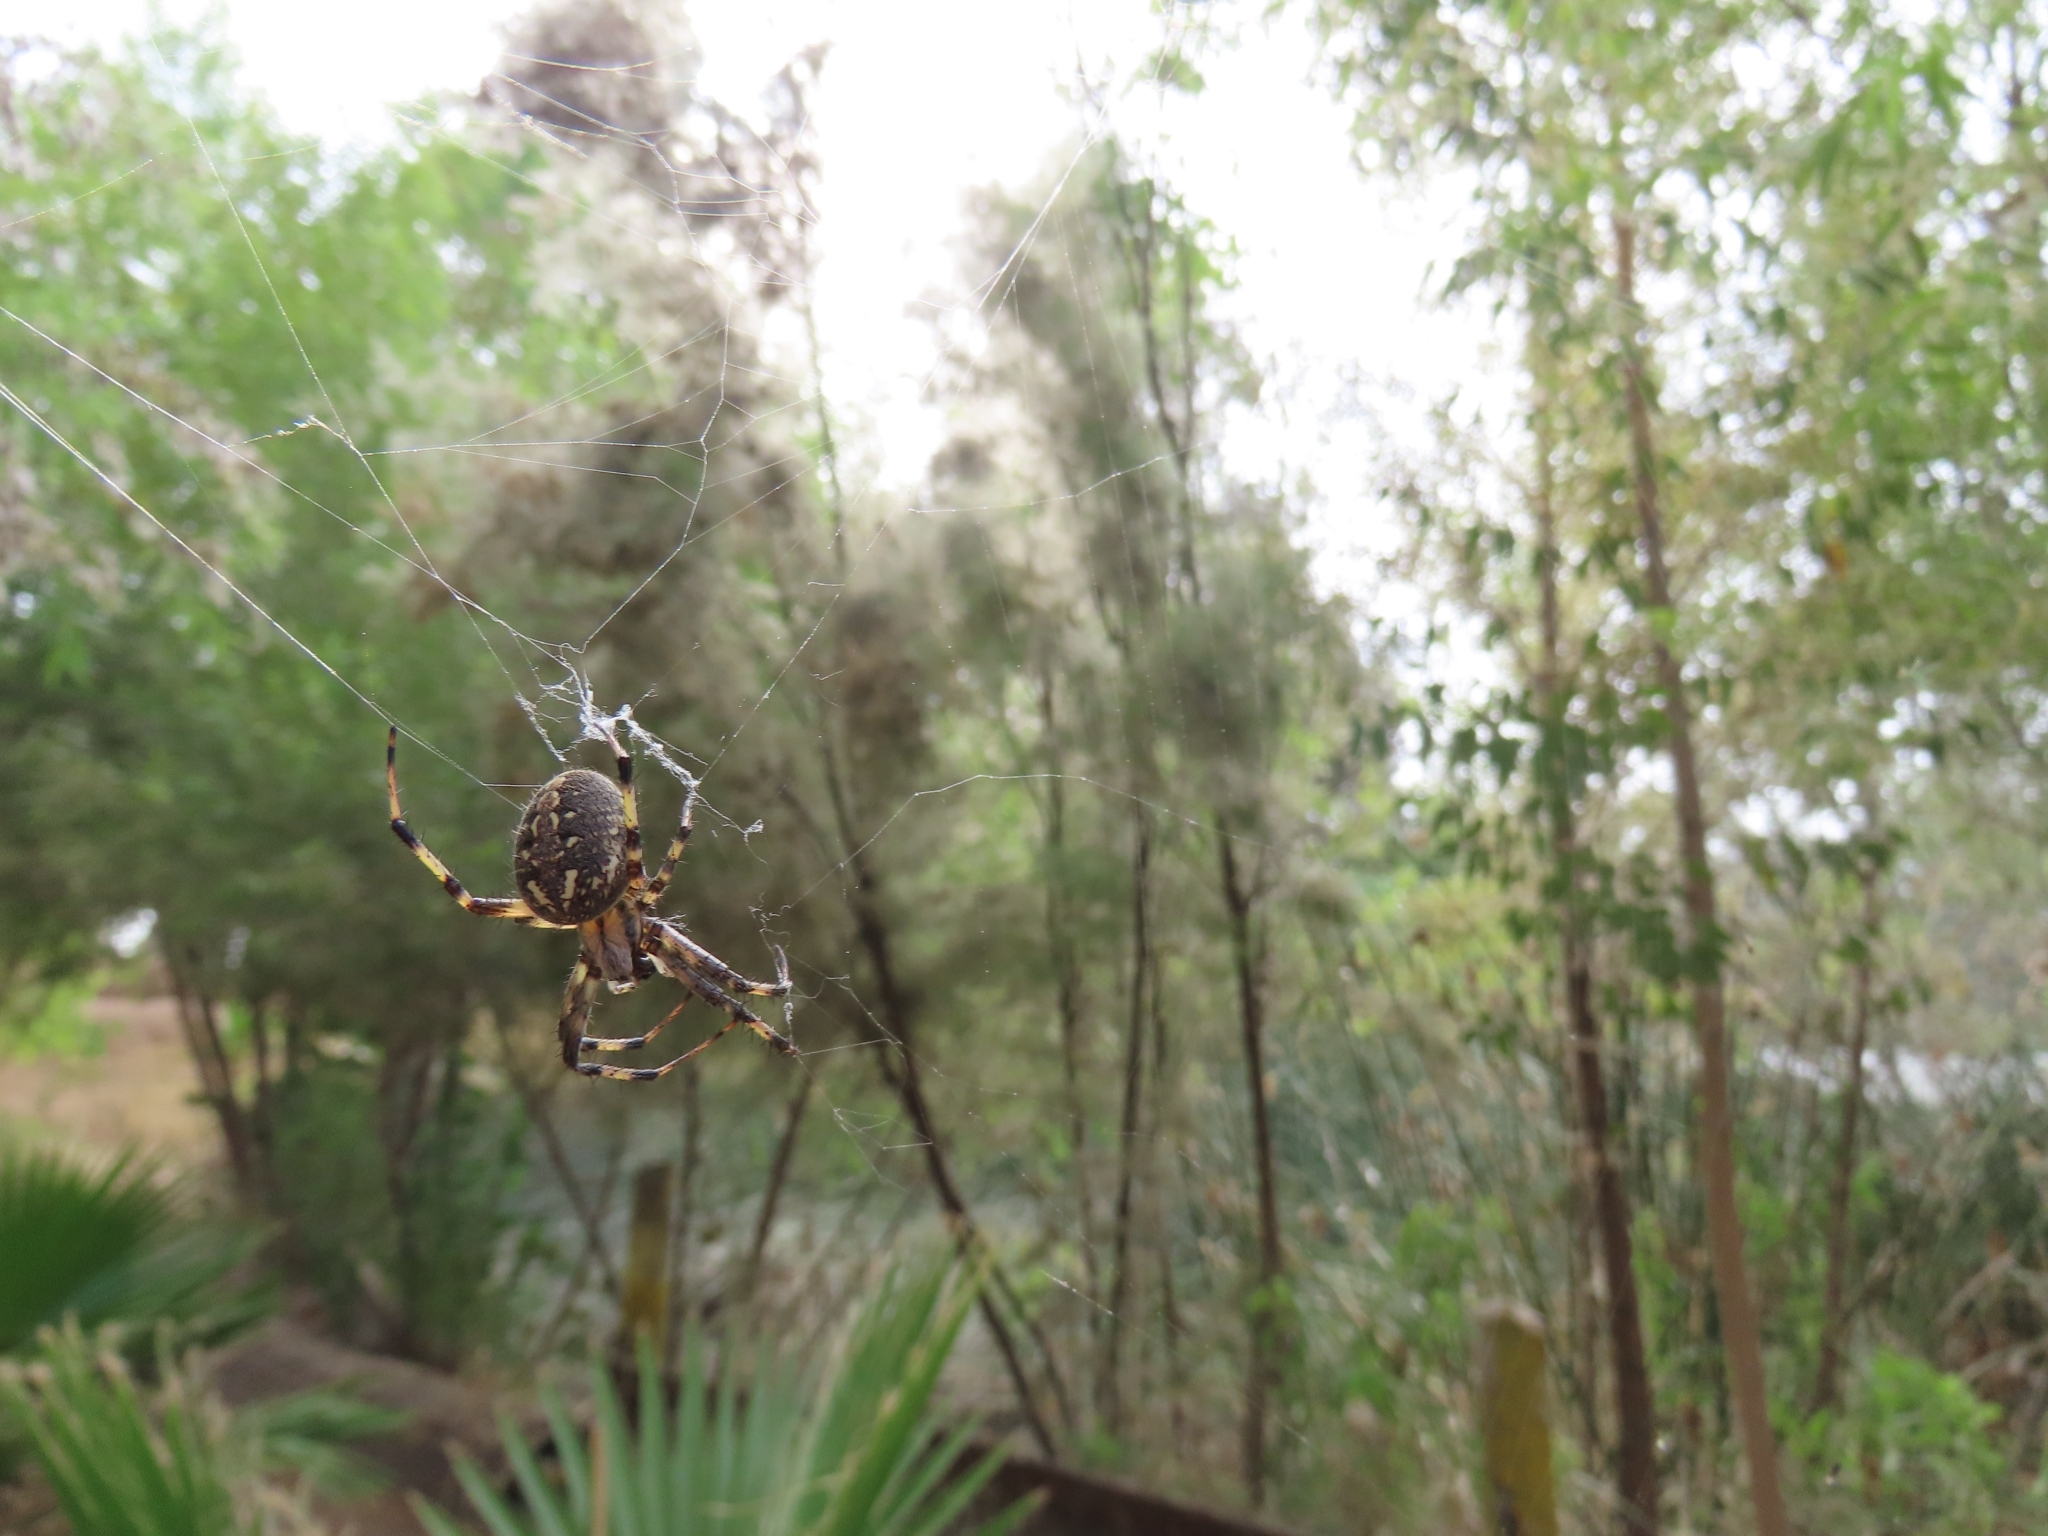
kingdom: Animalia
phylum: Arthropoda
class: Arachnida
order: Araneae
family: Araneidae
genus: Neoscona
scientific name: Neoscona oaxacensis
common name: Orb weavers
